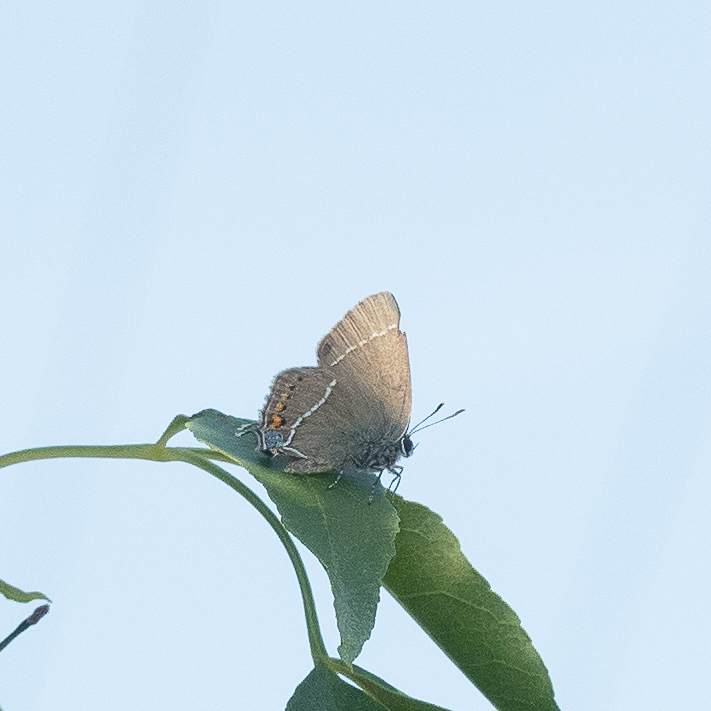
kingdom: Animalia
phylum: Arthropoda
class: Insecta
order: Lepidoptera
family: Lycaenidae
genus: Tuttiola
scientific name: Tuttiola spini
